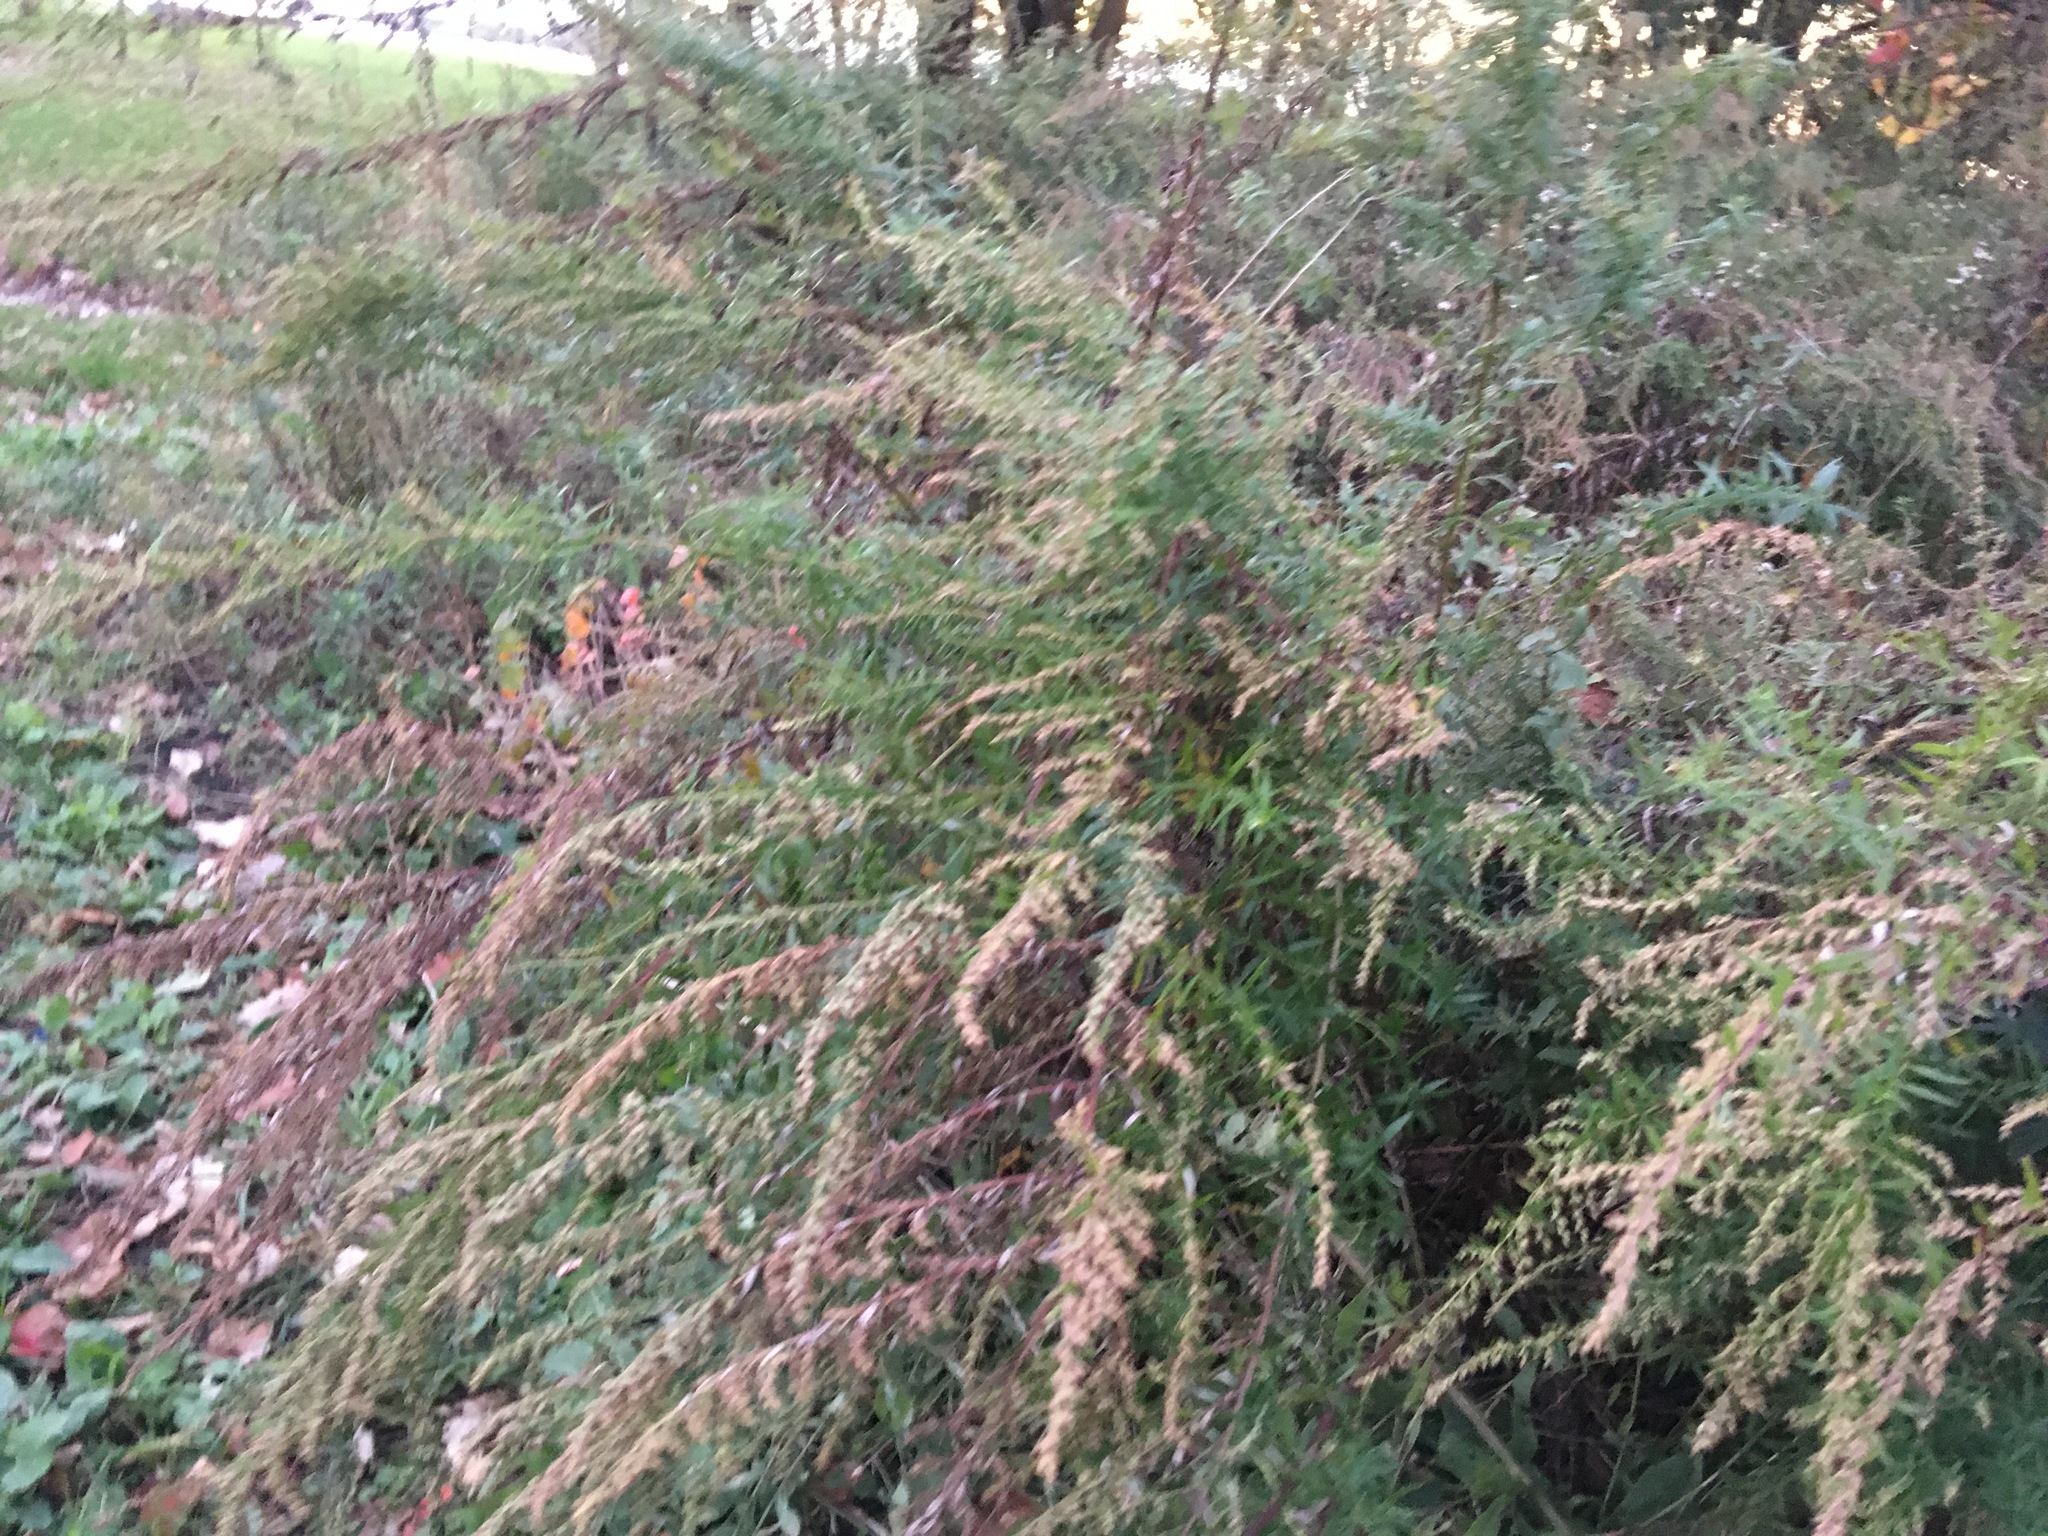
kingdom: Plantae
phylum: Tracheophyta
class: Magnoliopsida
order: Asterales
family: Asteraceae
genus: Artemisia
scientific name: Artemisia vulgaris
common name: Mugwort
